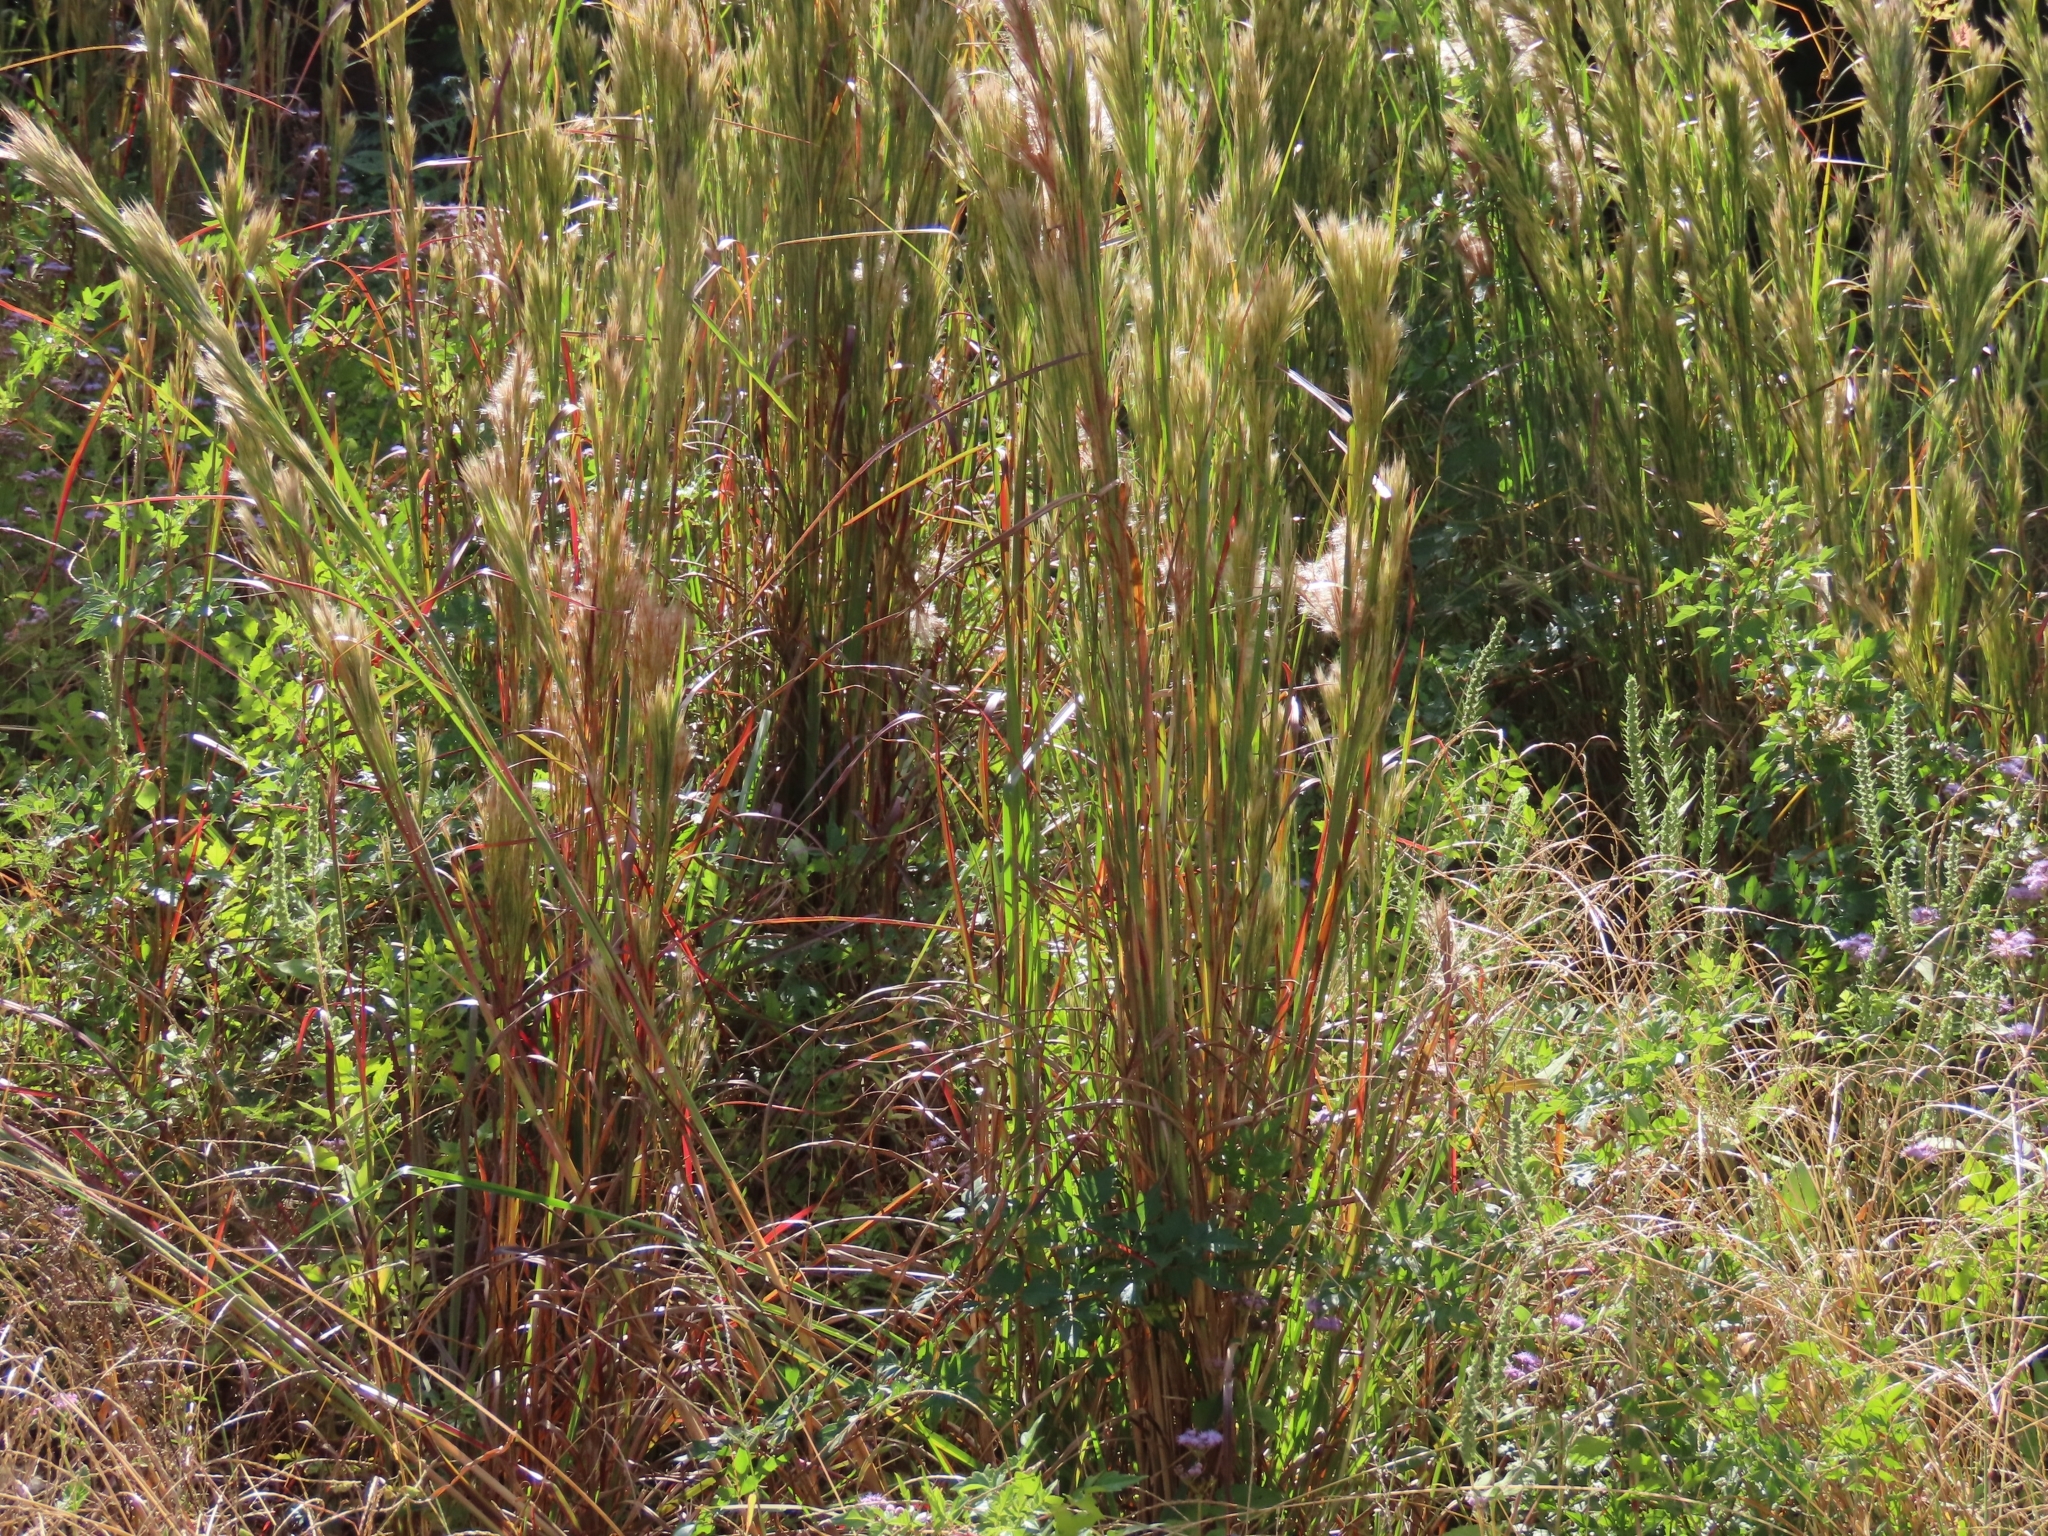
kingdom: Plantae
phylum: Tracheophyta
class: Liliopsida
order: Poales
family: Poaceae
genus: Andropogon
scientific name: Andropogon tenuispatheus
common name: Bushy bluestem
